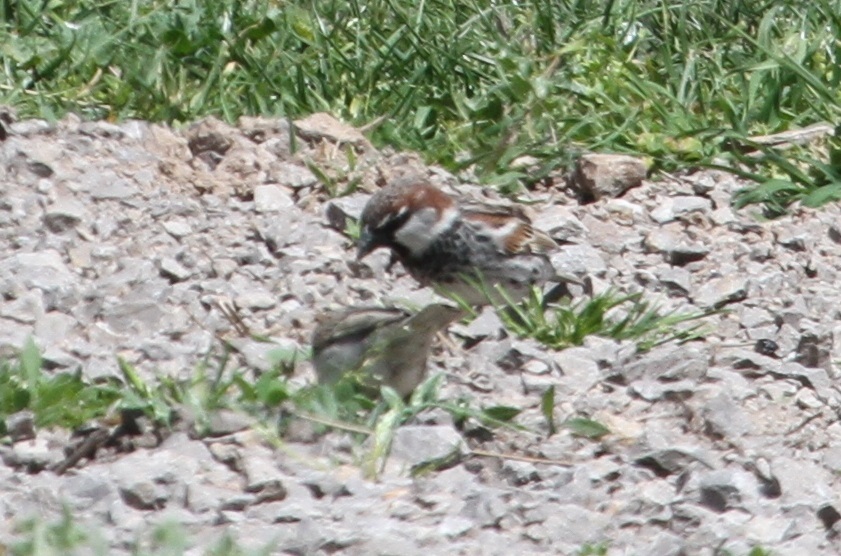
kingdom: Animalia
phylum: Chordata
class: Aves
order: Passeriformes
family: Passeridae
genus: Passer
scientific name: Passer domesticus
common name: House sparrow
